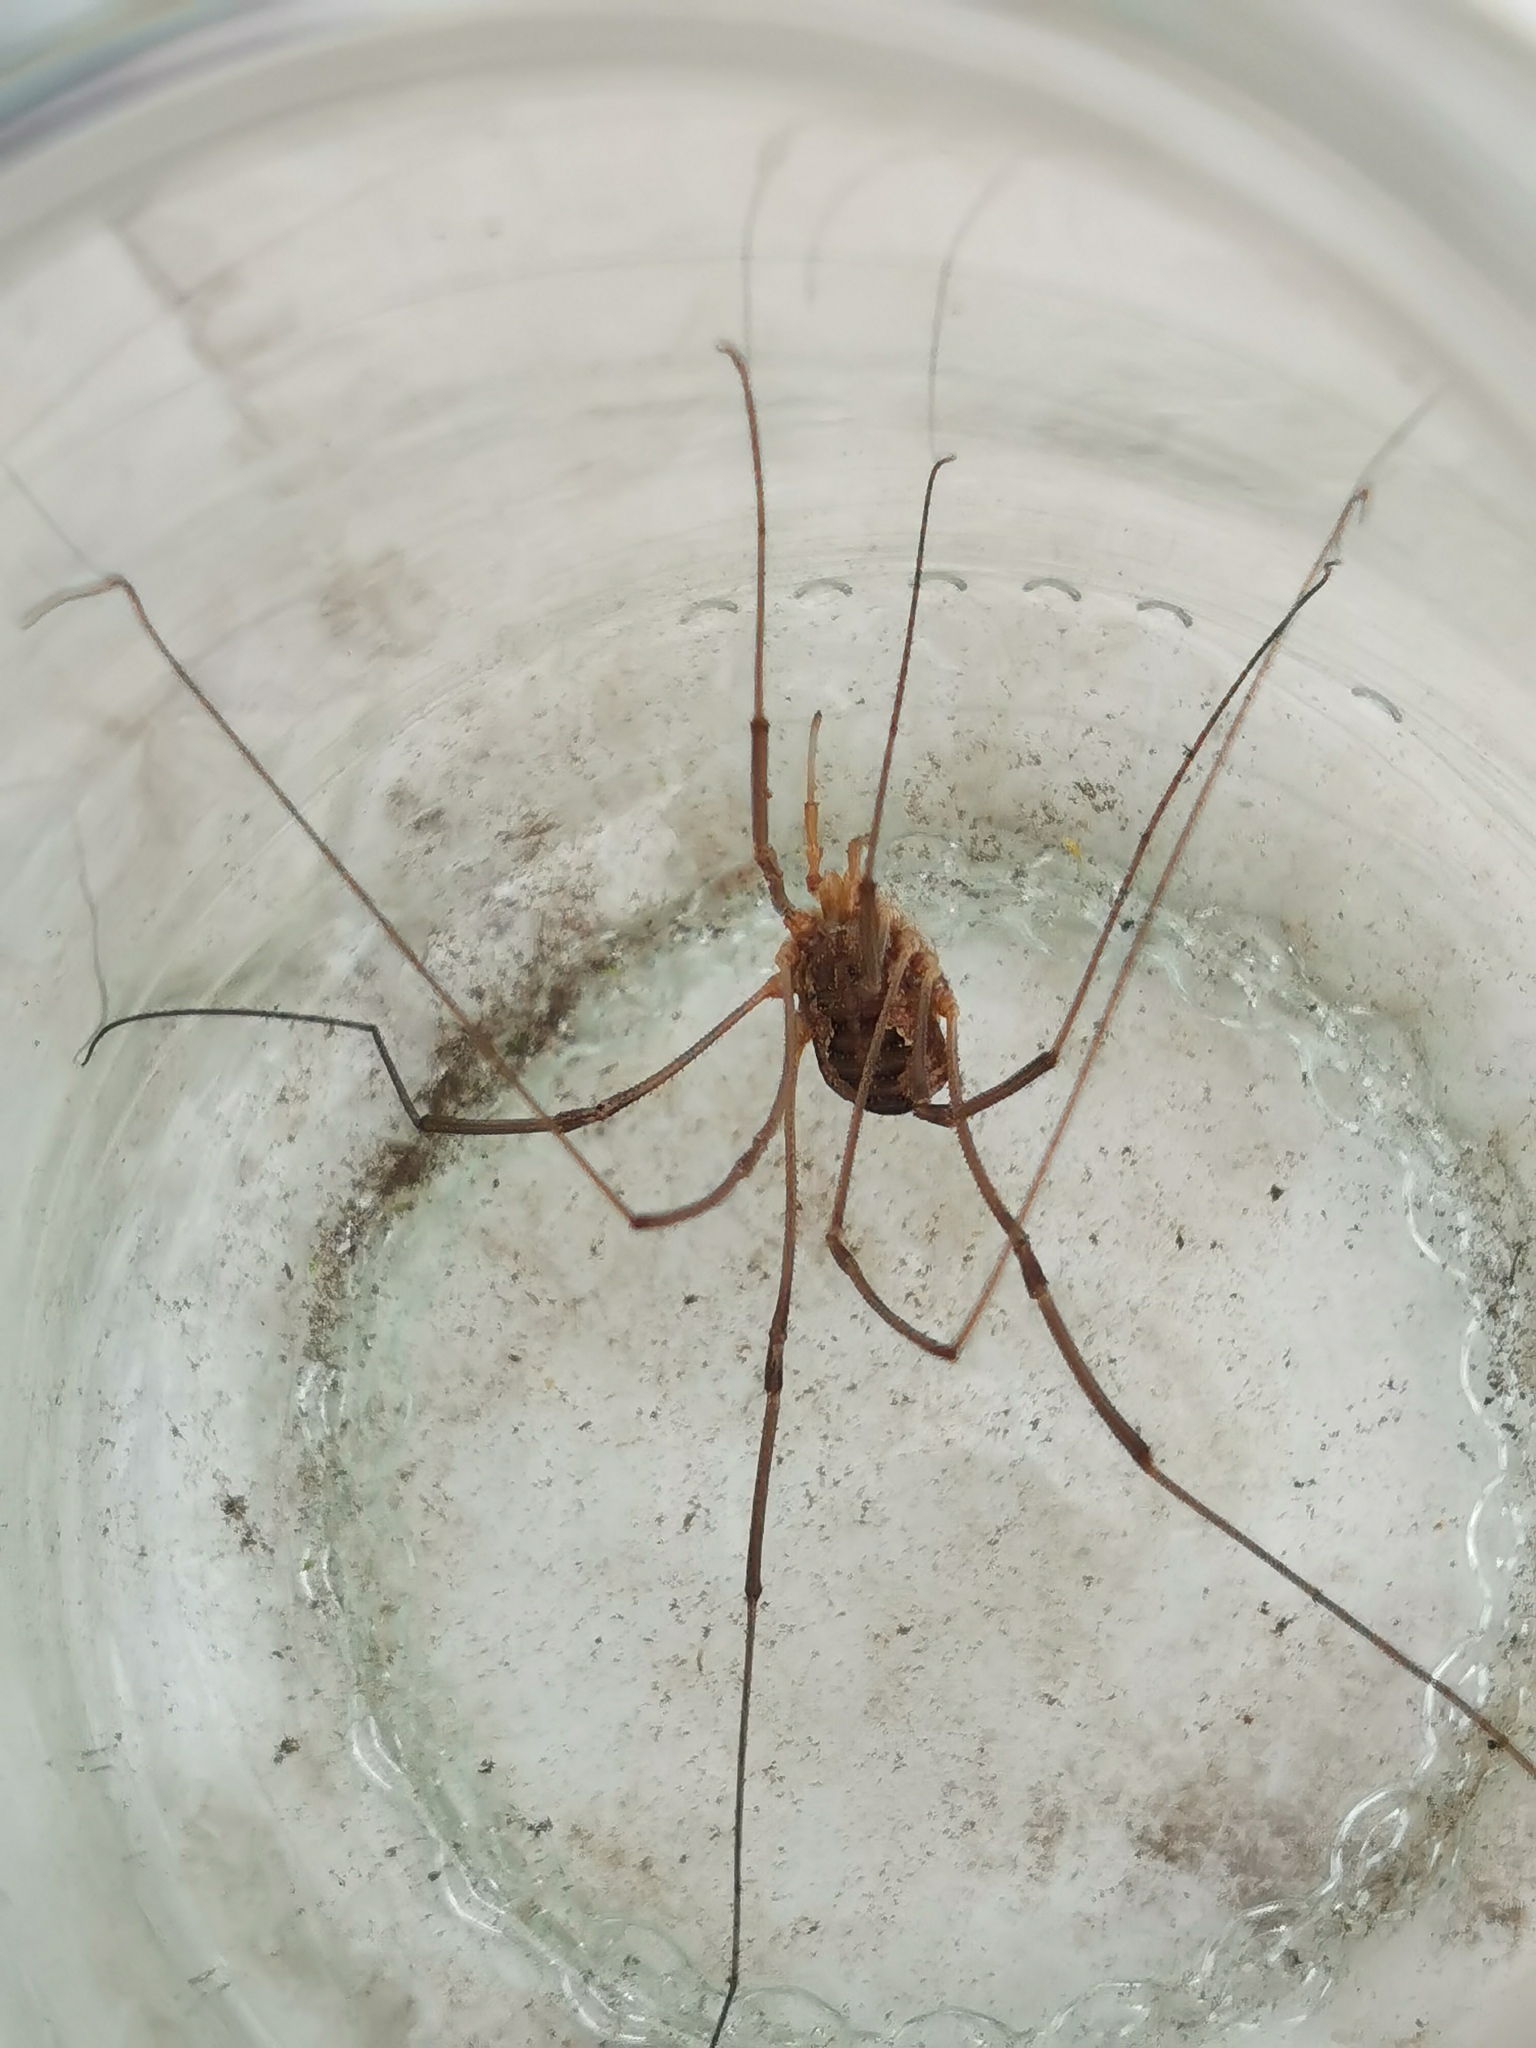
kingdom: Animalia
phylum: Arthropoda
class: Arachnida
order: Opiliones
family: Phalangiidae
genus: Phalangium
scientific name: Phalangium opilio
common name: Daddy longleg
